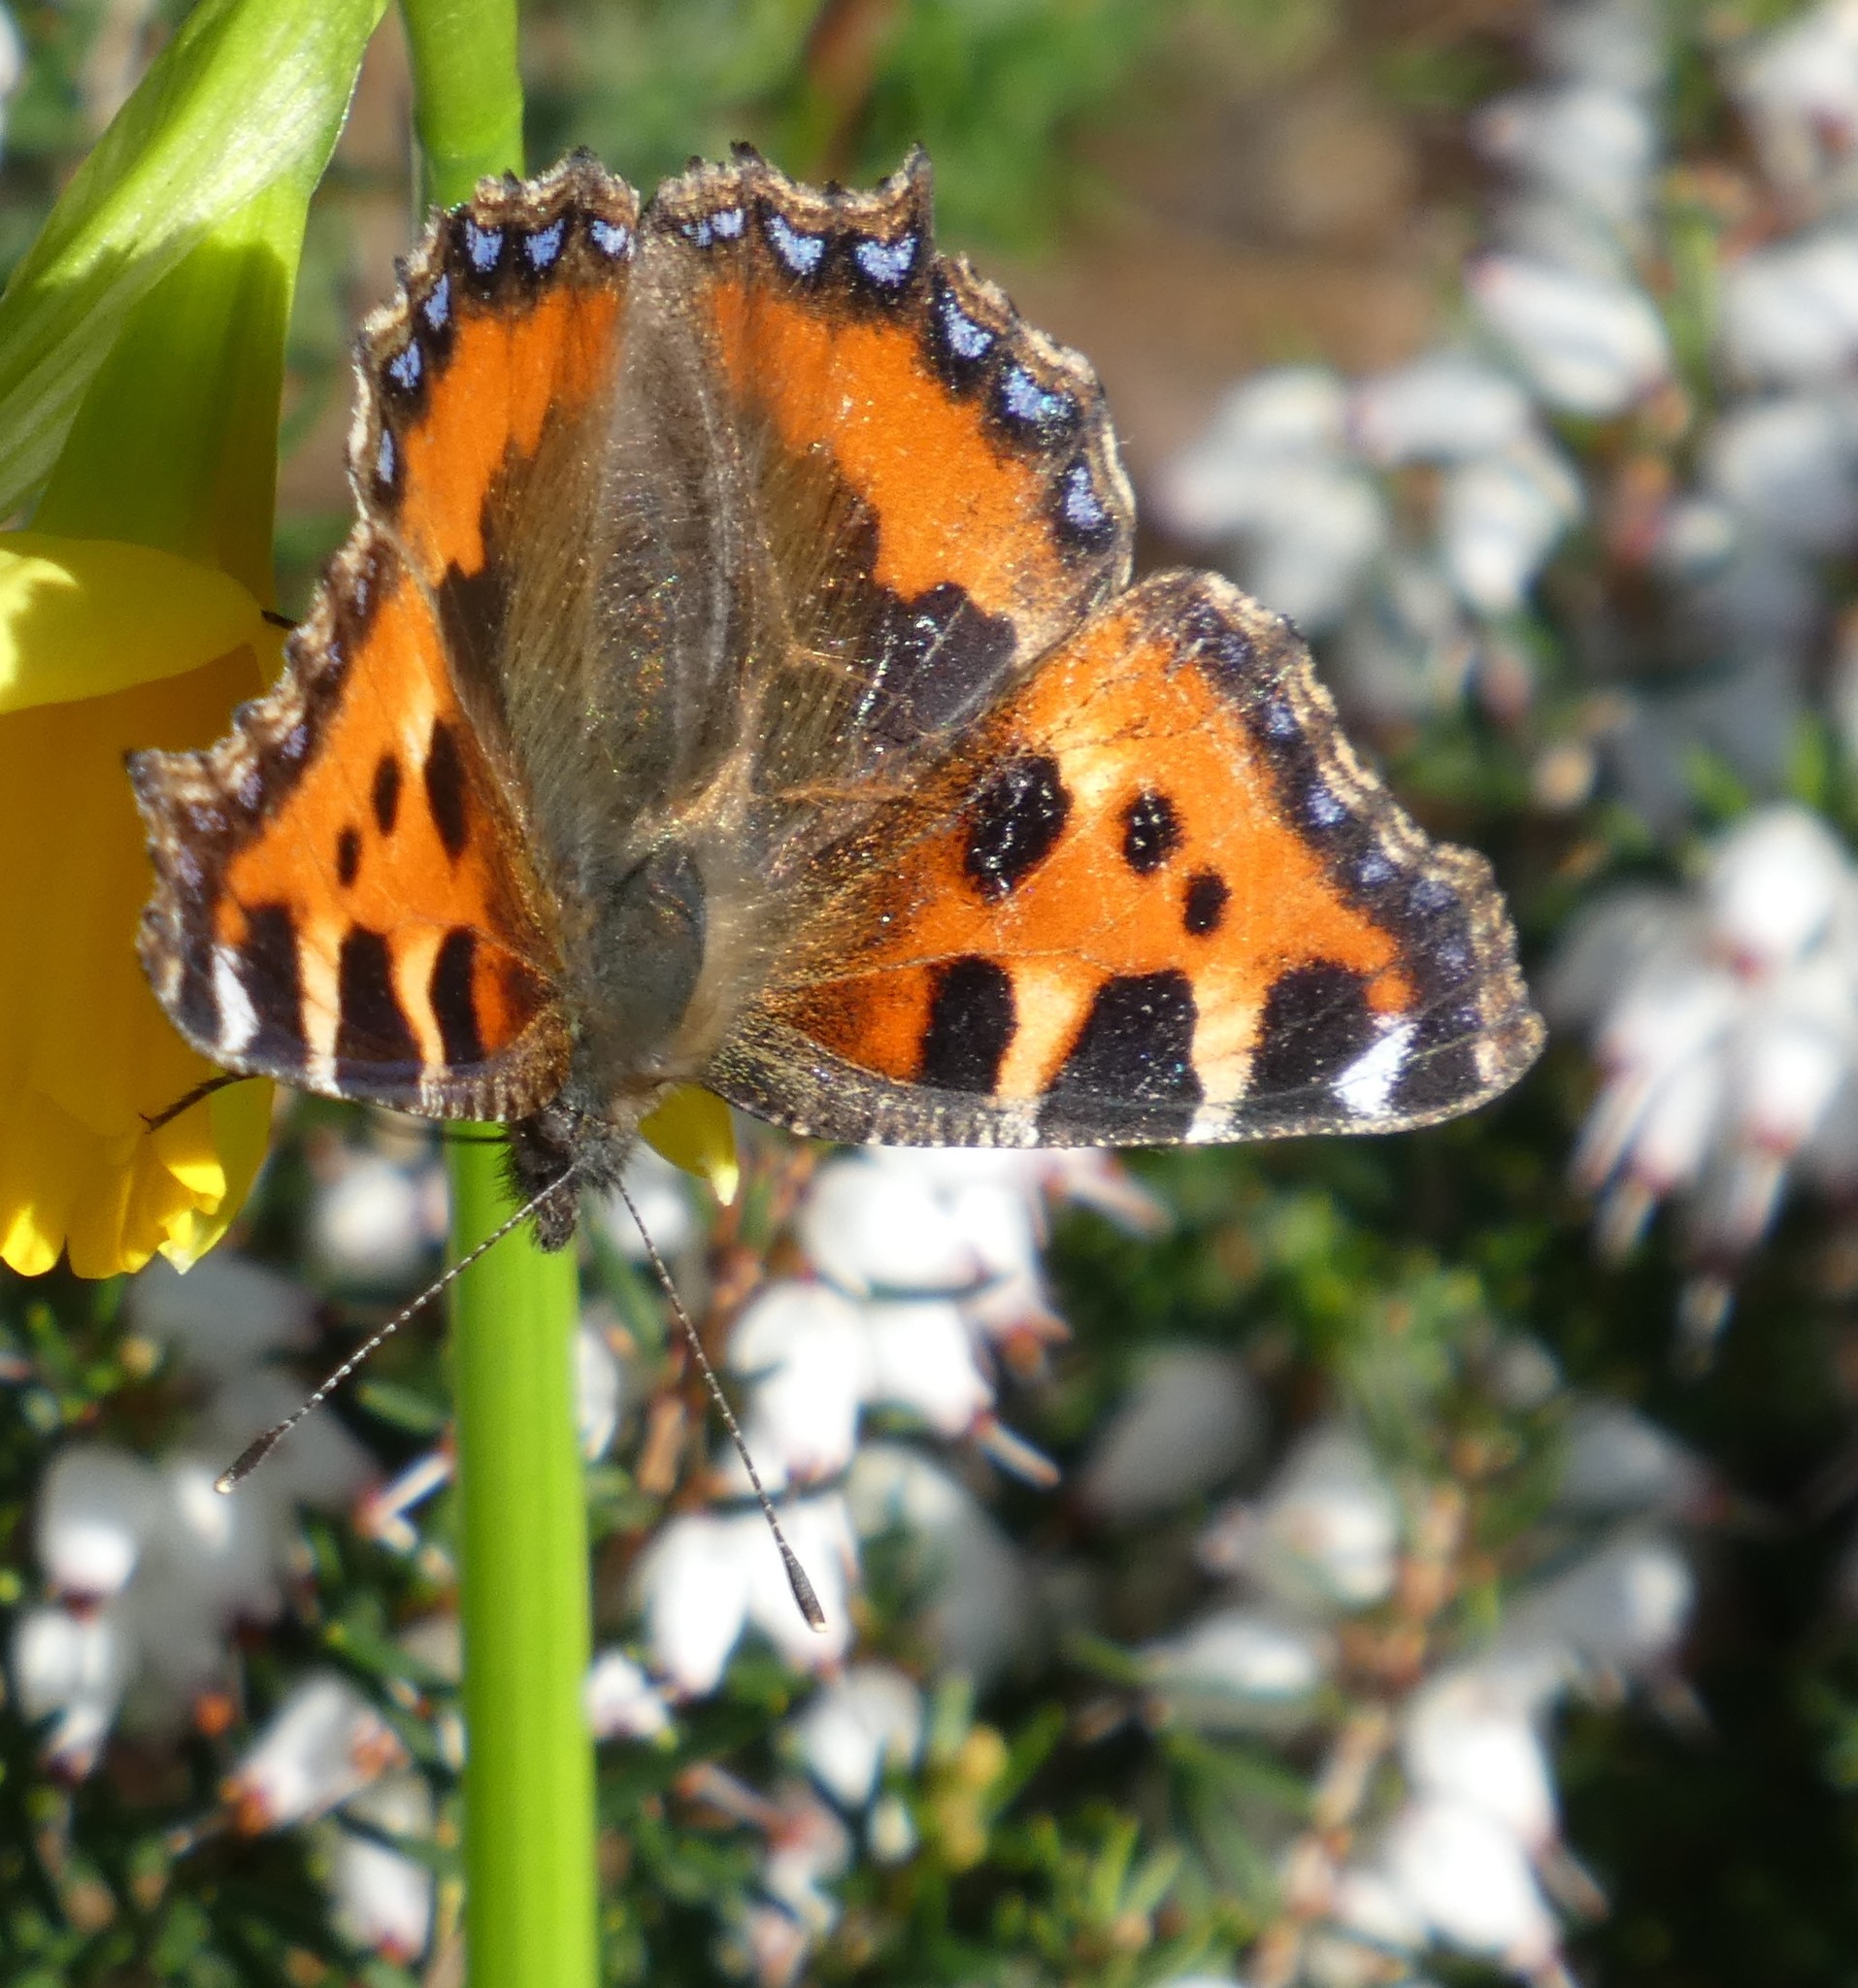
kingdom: Animalia
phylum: Arthropoda
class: Insecta
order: Lepidoptera
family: Nymphalidae
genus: Aglais
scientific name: Aglais urticae
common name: Small tortoiseshell
